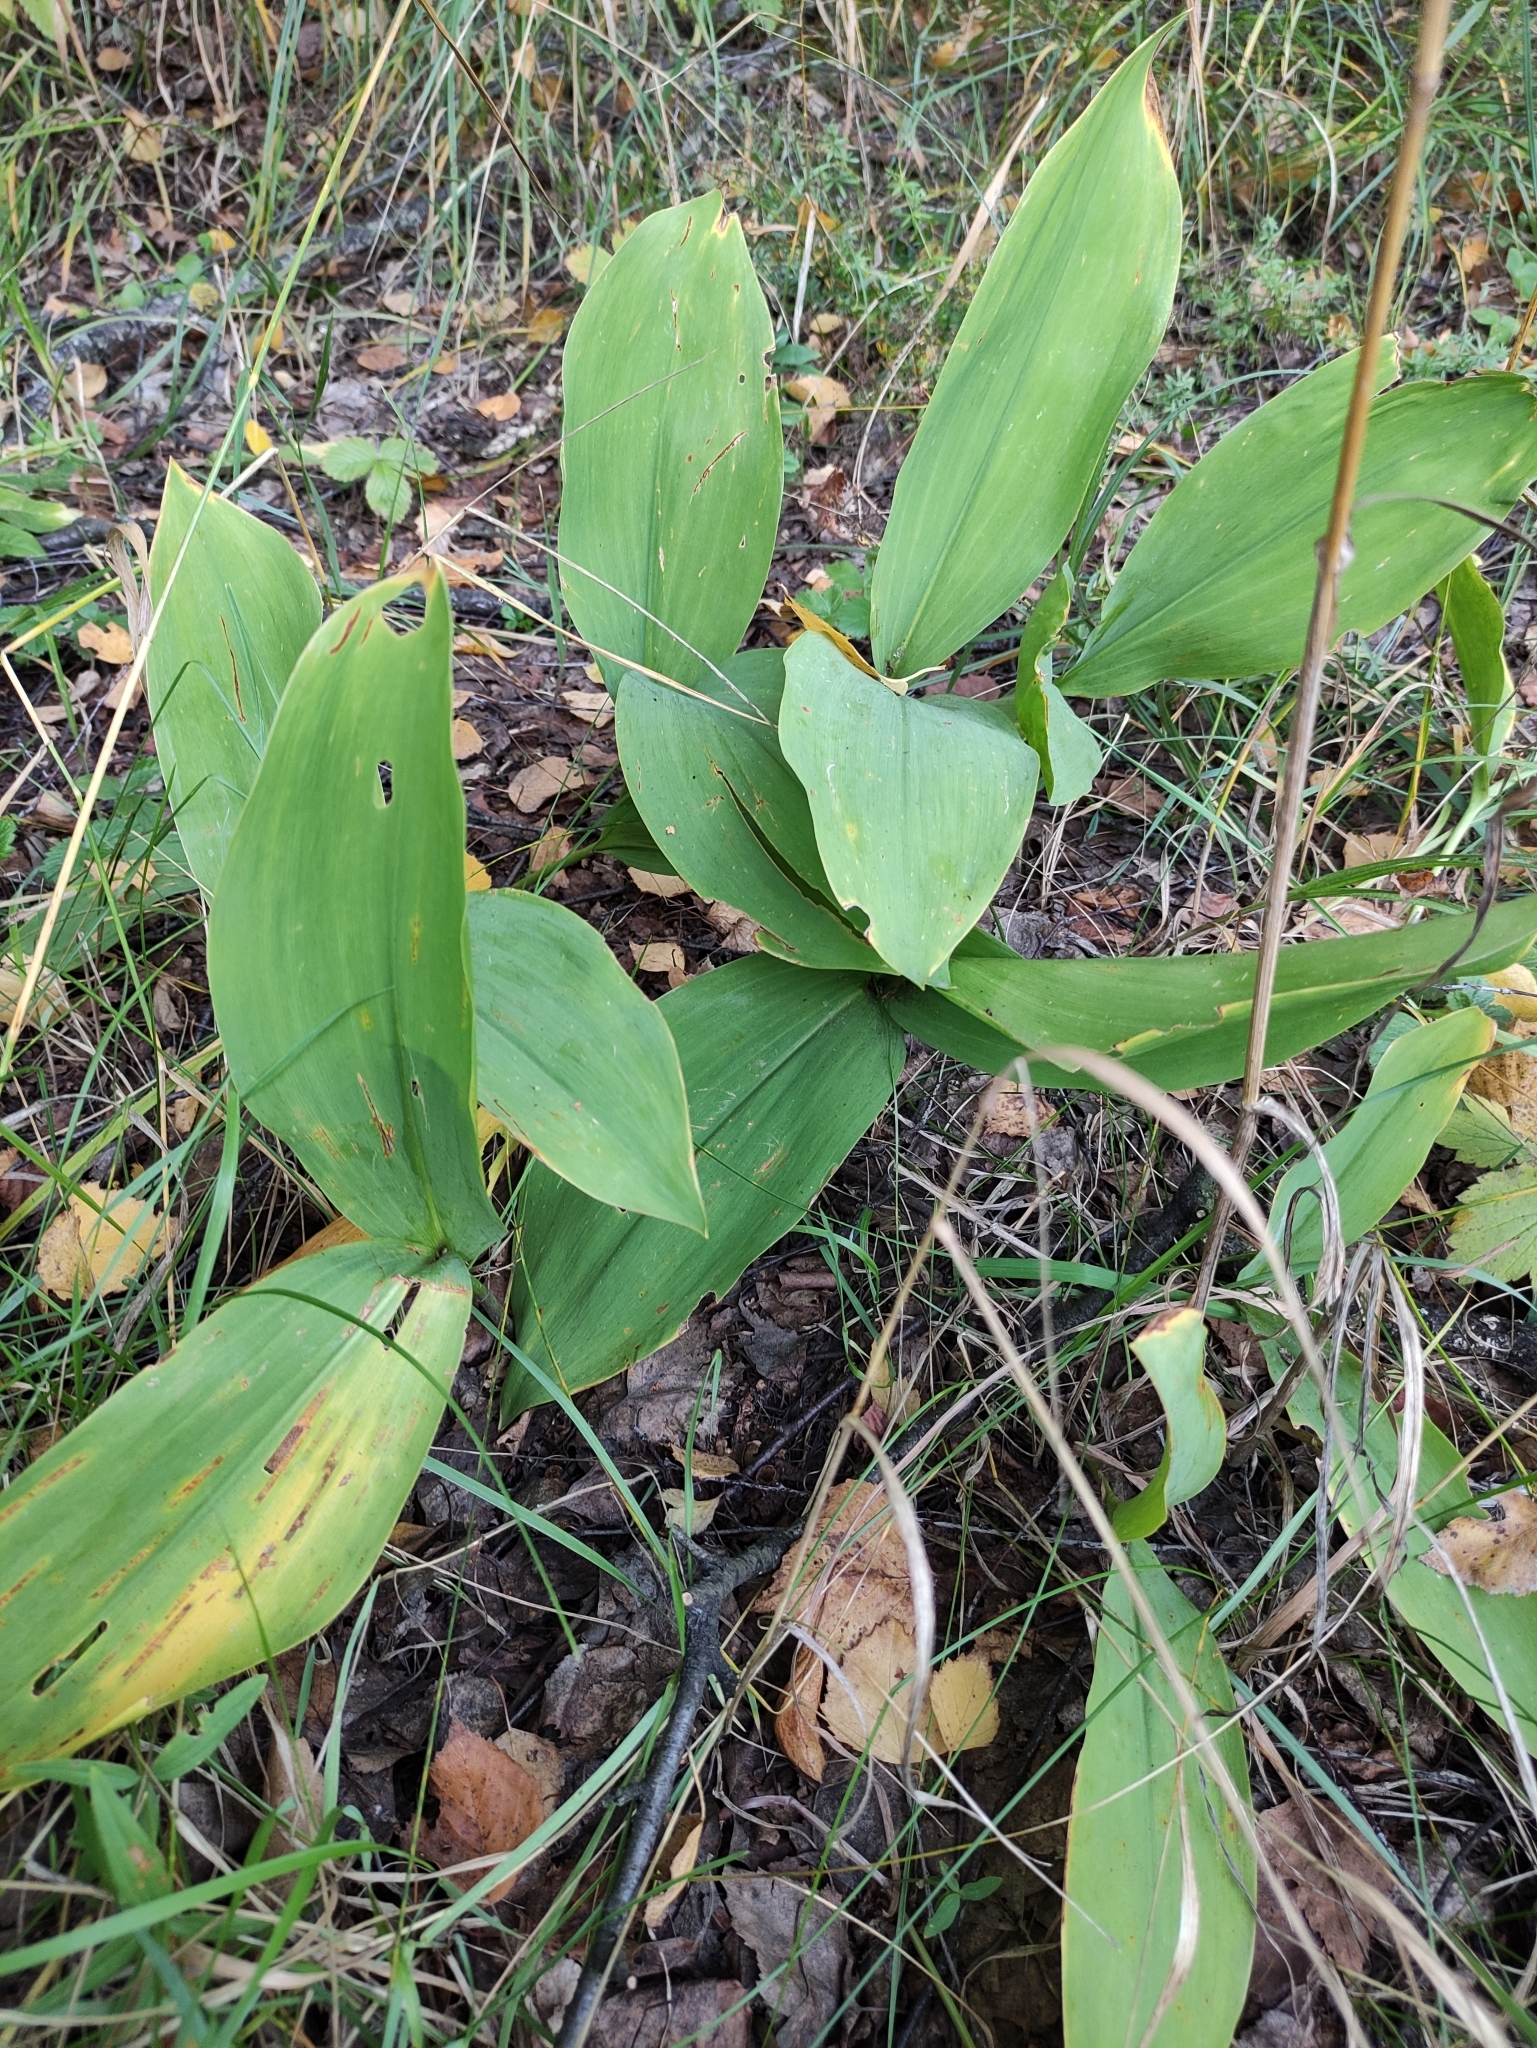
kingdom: Plantae
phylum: Tracheophyta
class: Liliopsida
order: Asparagales
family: Asparagaceae
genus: Convallaria
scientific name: Convallaria majalis
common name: Lily-of-the-valley
